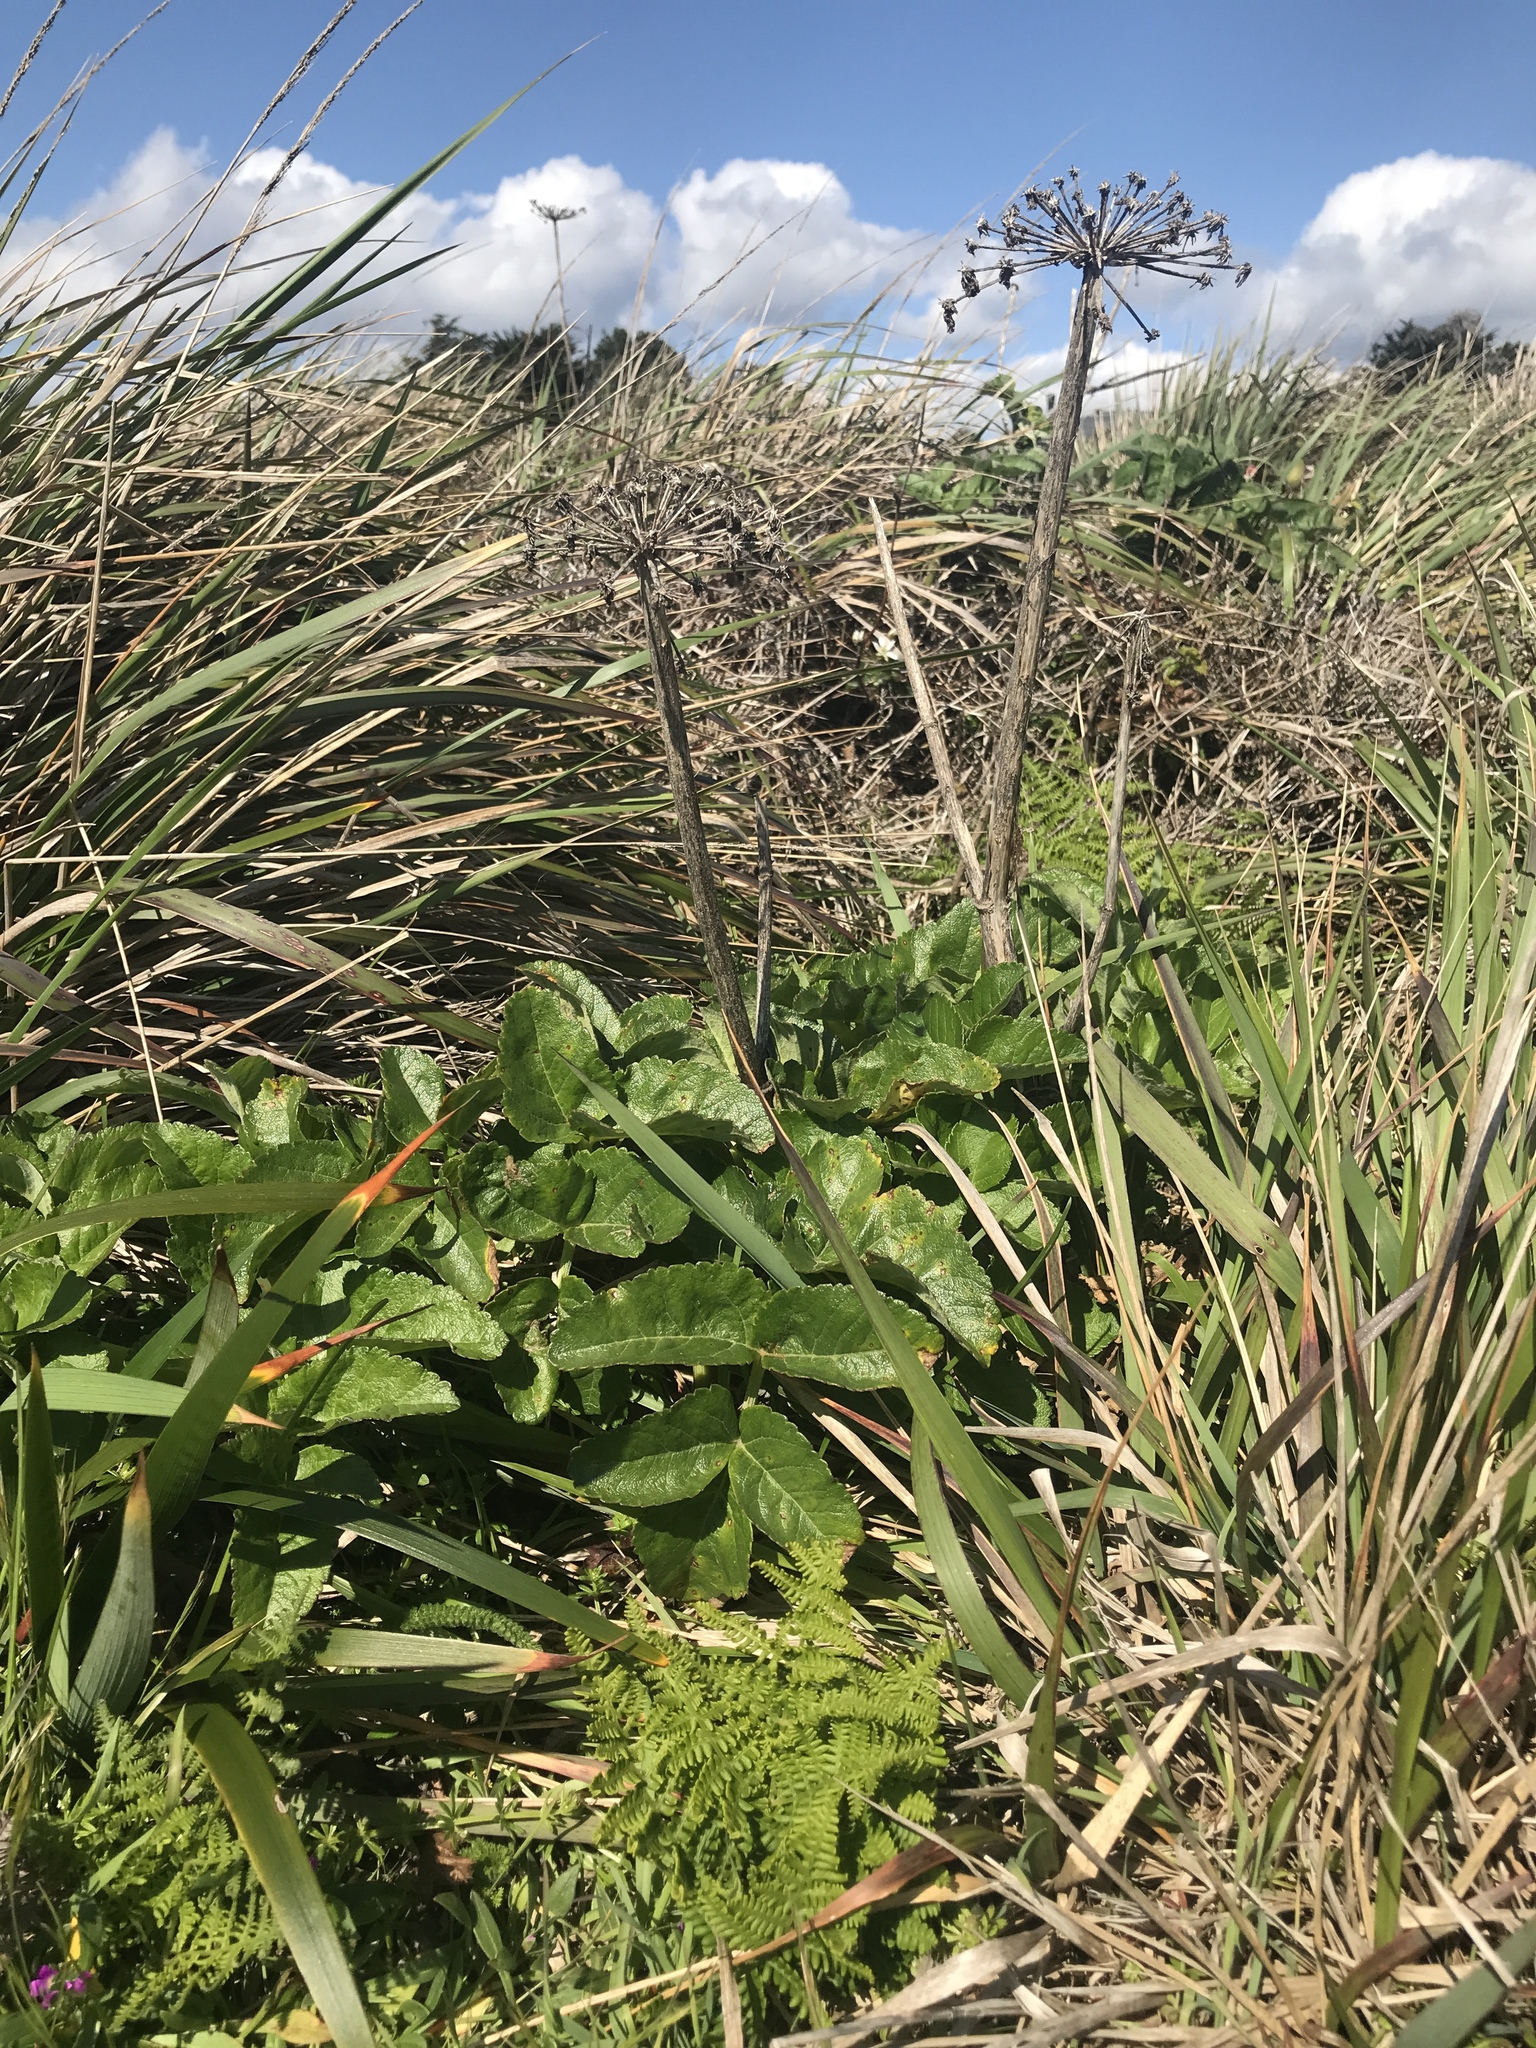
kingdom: Plantae
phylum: Tracheophyta
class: Magnoliopsida
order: Apiales
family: Apiaceae
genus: Angelica
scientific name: Angelica hendersonii
